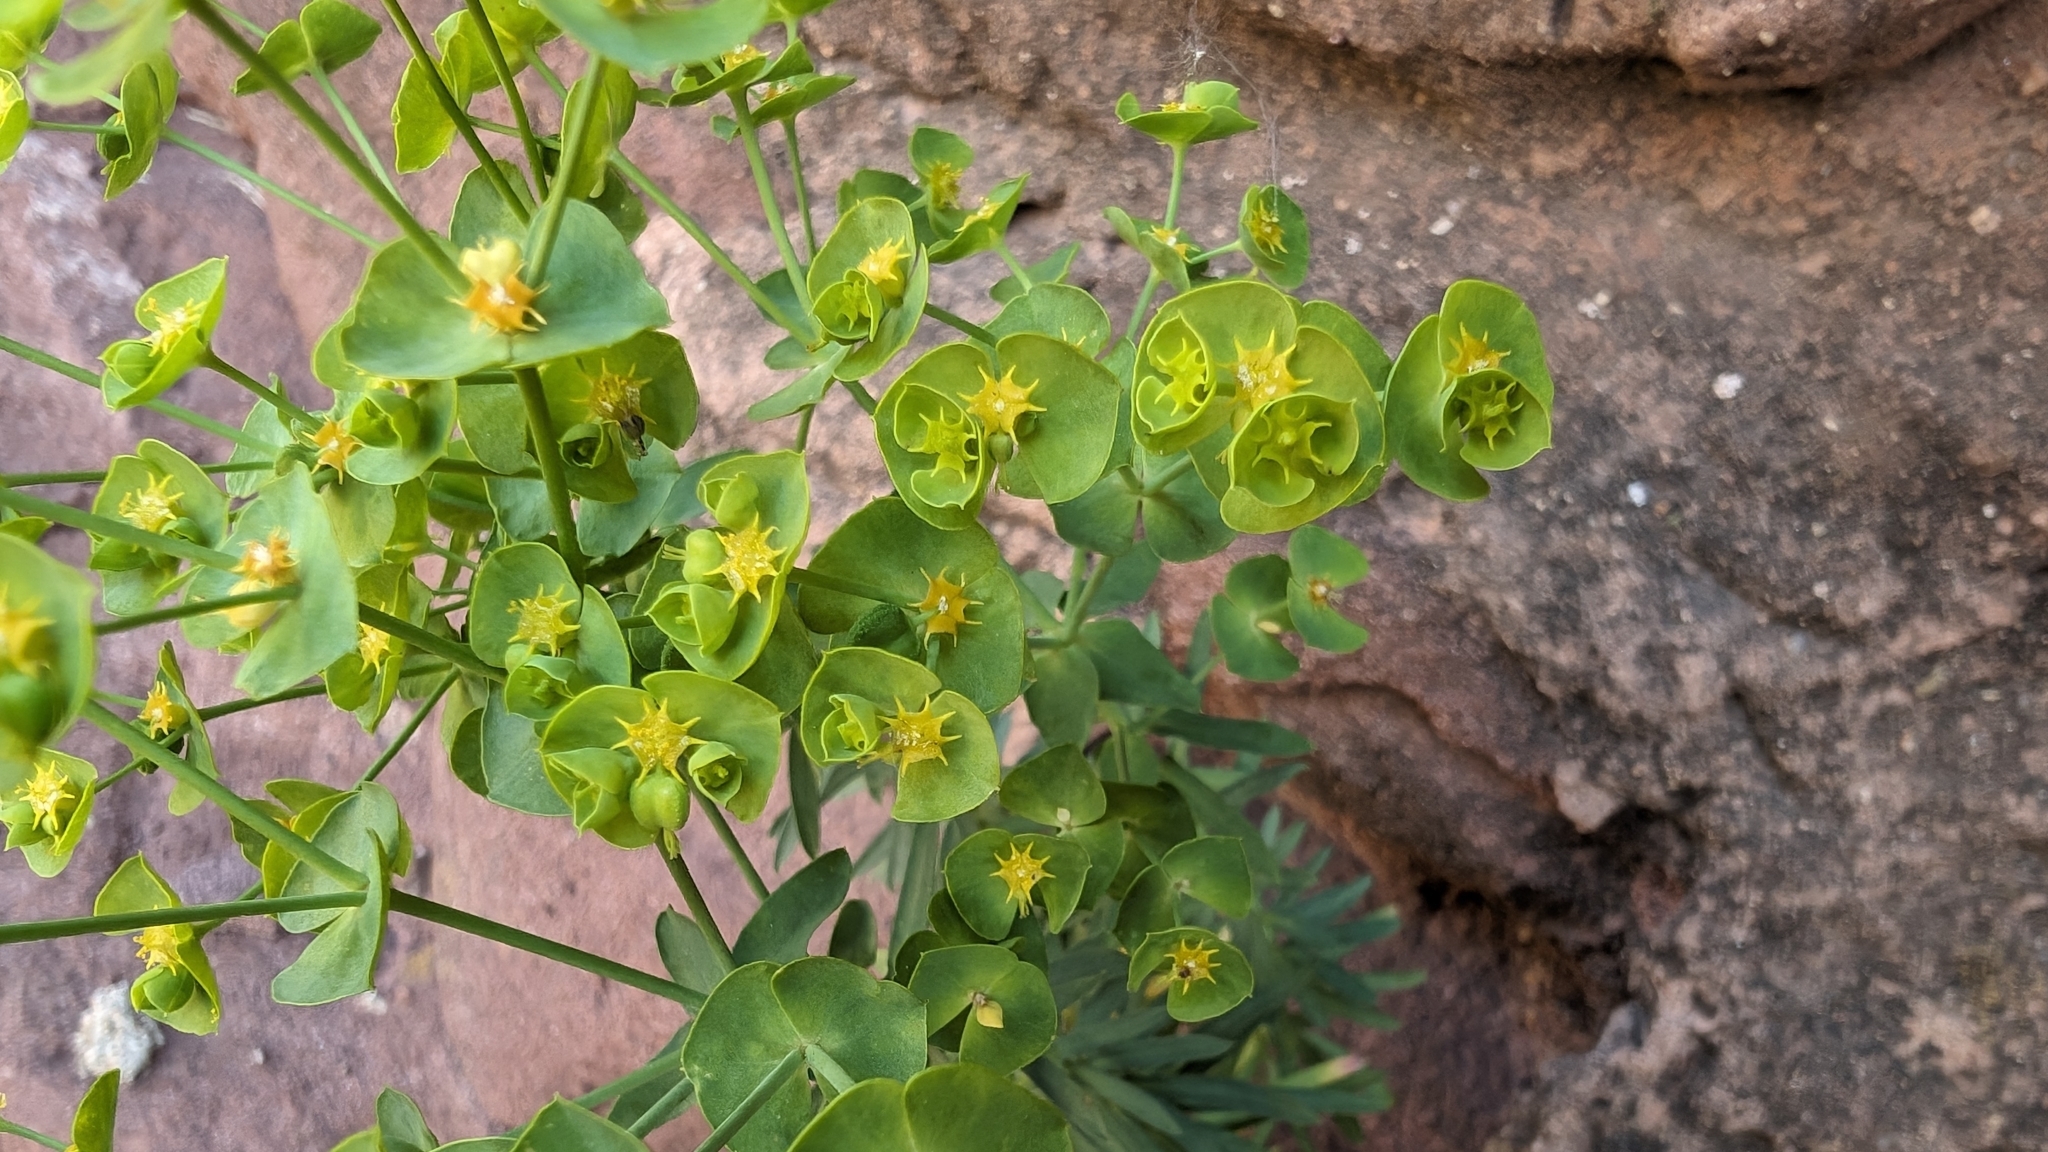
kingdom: Plantae
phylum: Tracheophyta
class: Magnoliopsida
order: Malpighiales
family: Euphorbiaceae
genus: Euphorbia
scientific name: Euphorbia segetalis
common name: Corn spurge
